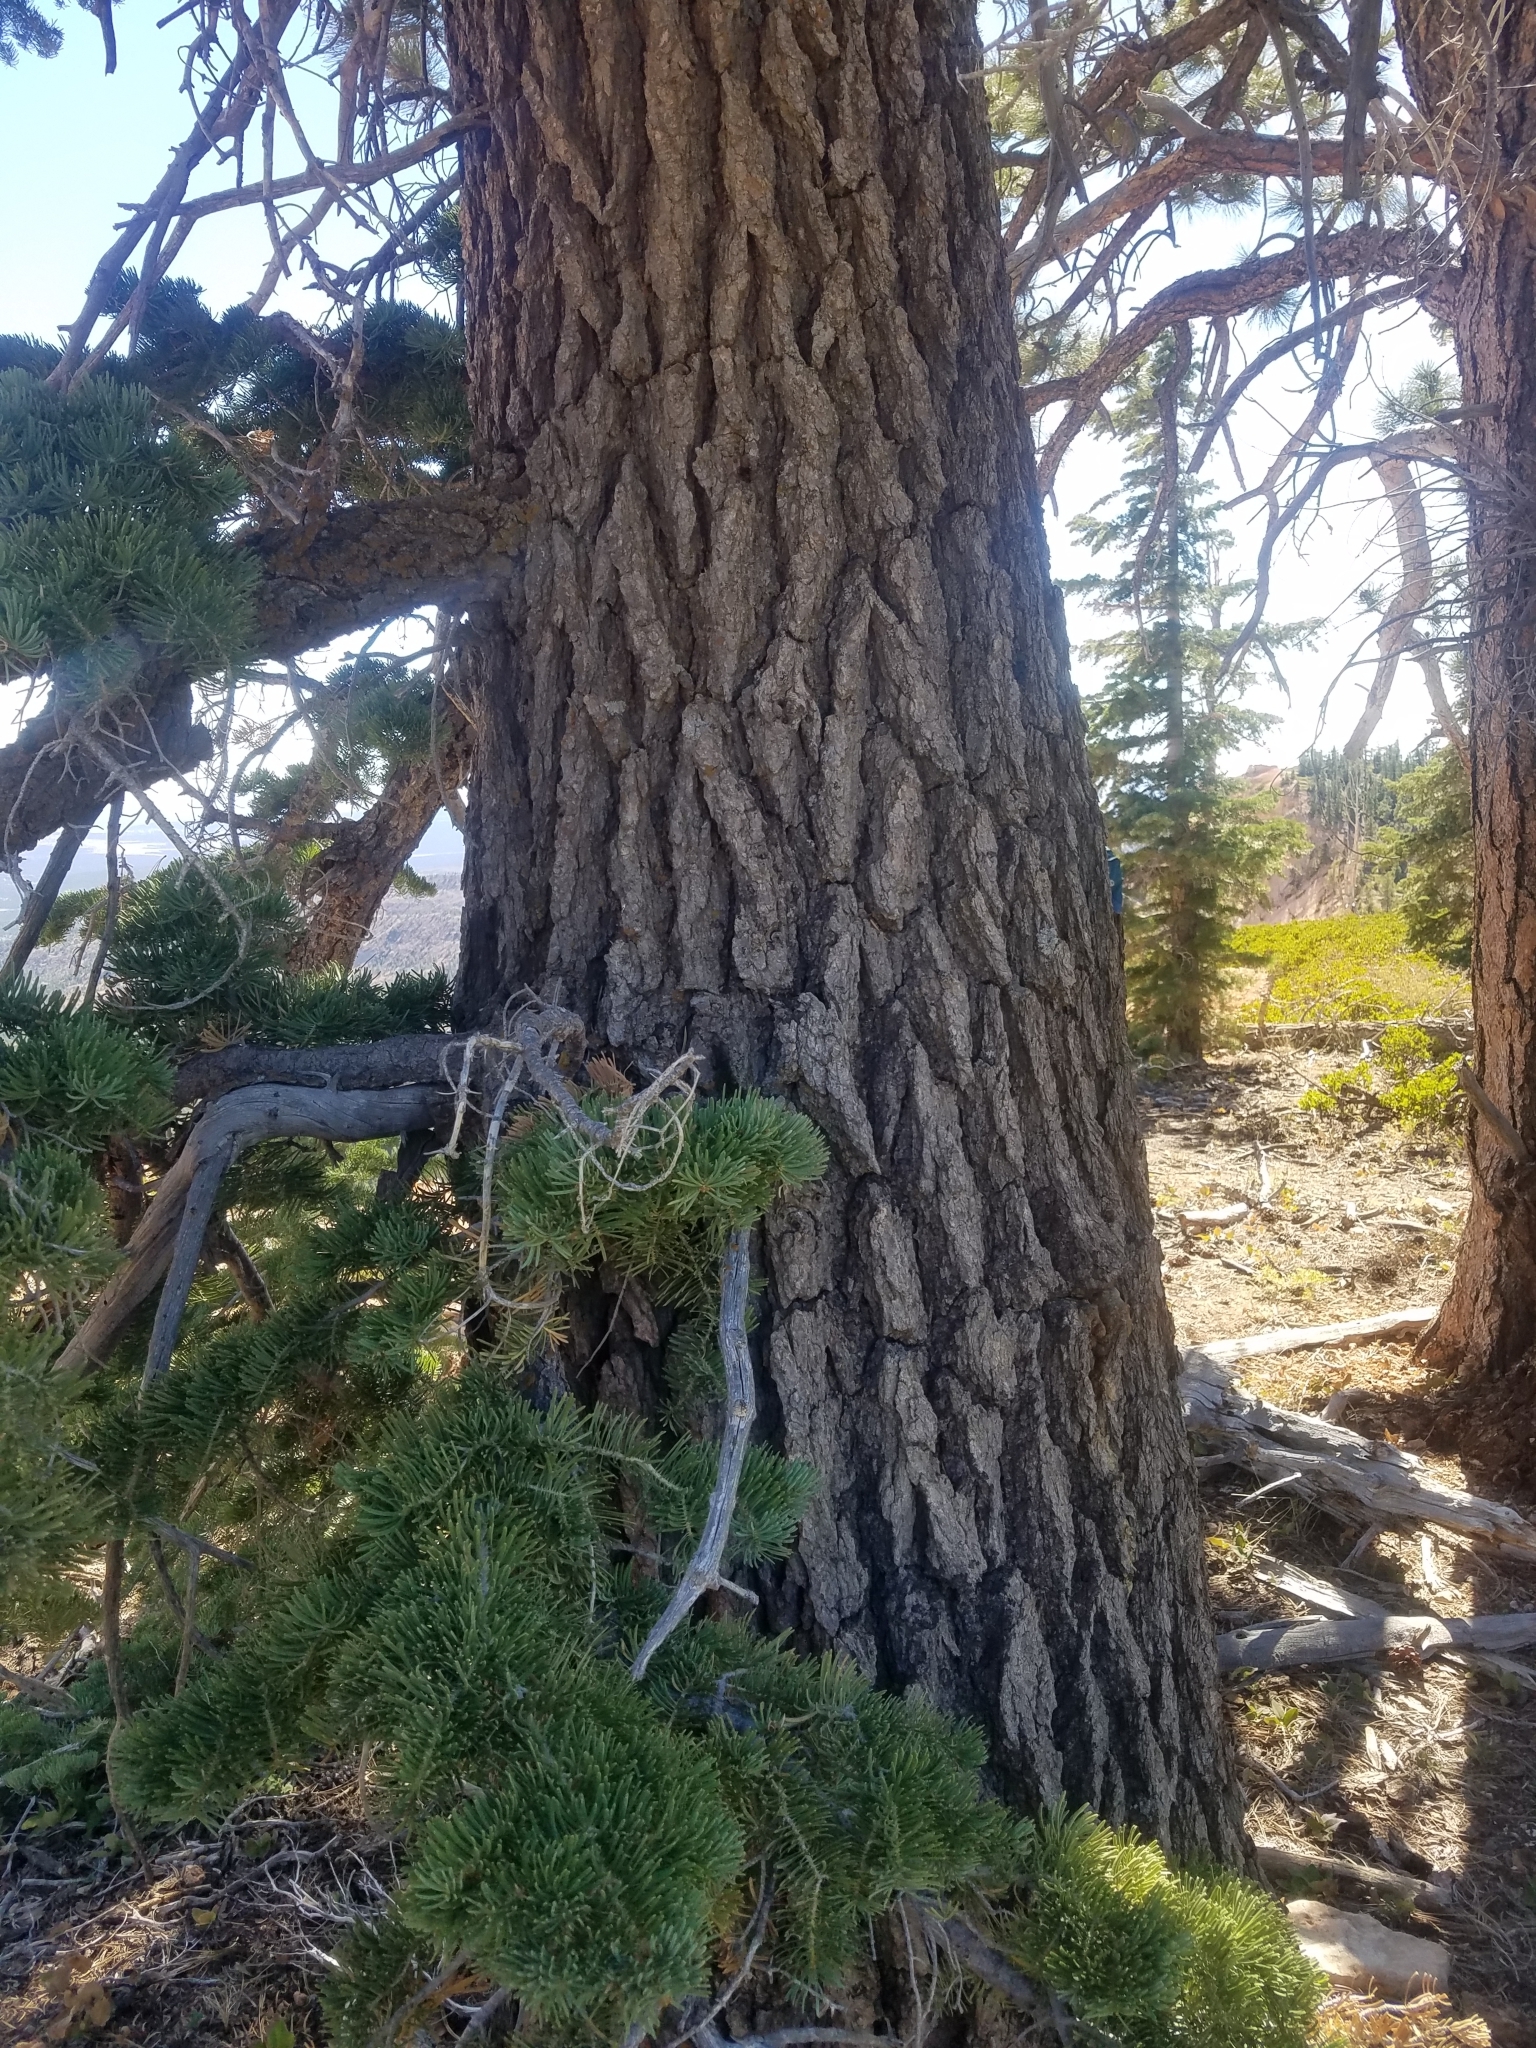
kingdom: Plantae
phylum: Tracheophyta
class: Pinopsida
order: Pinales
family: Pinaceae
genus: Abies
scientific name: Abies concolor
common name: Colorado fir
